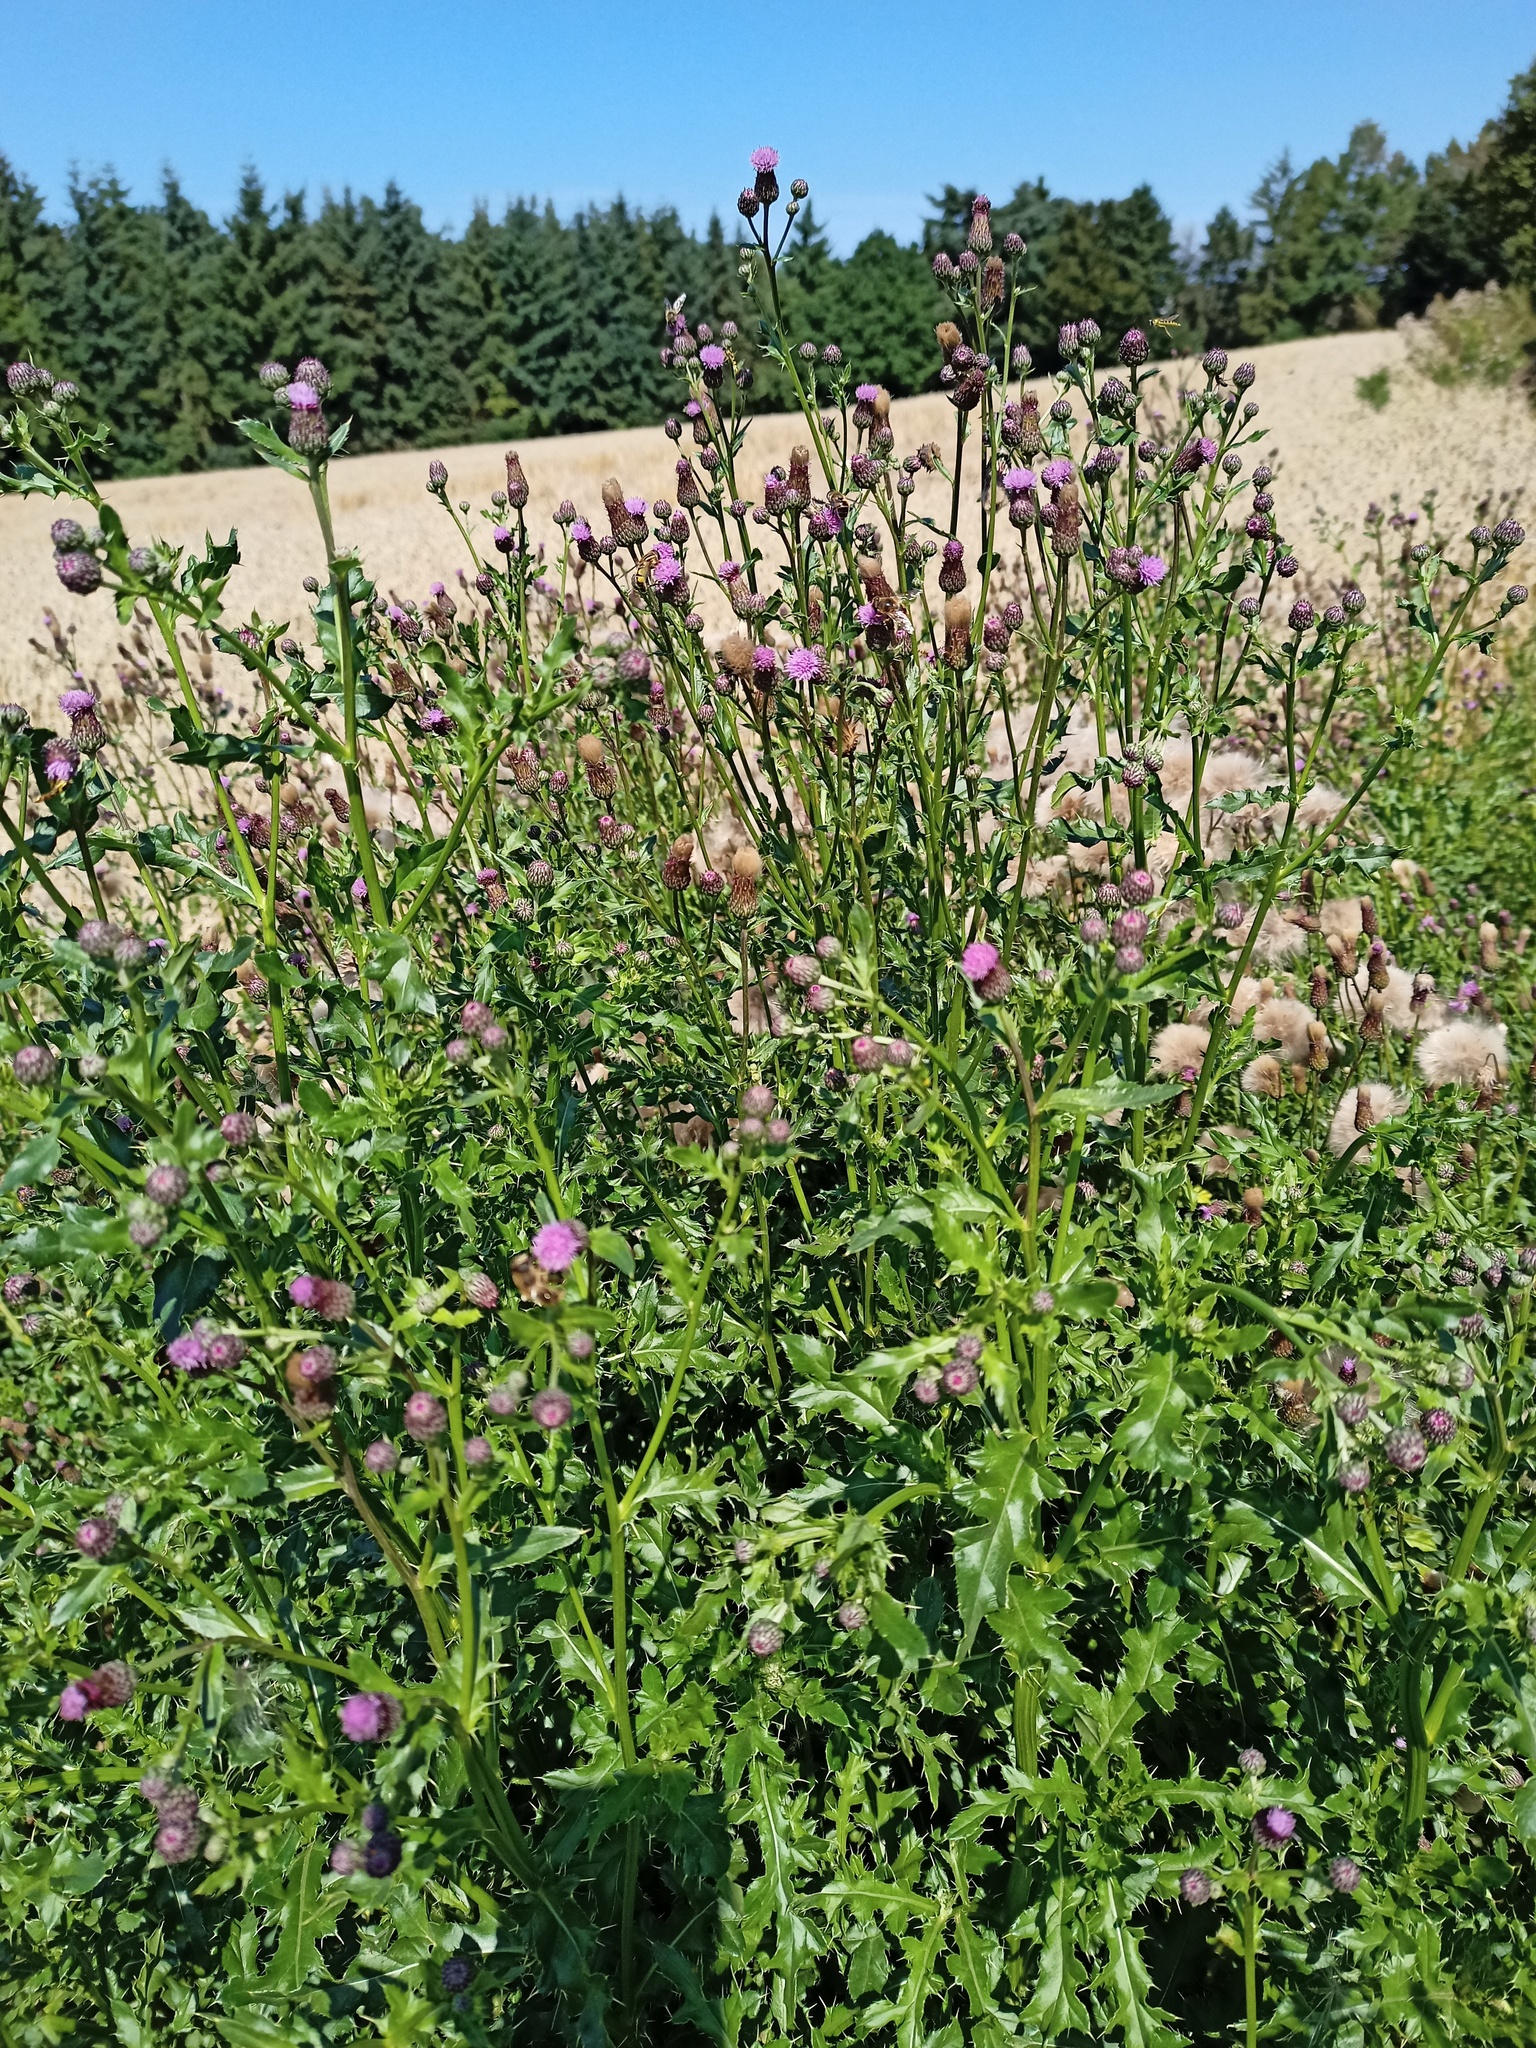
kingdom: Plantae
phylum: Tracheophyta
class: Magnoliopsida
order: Asterales
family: Asteraceae
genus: Cirsium
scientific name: Cirsium arvense
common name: Creeping thistle
